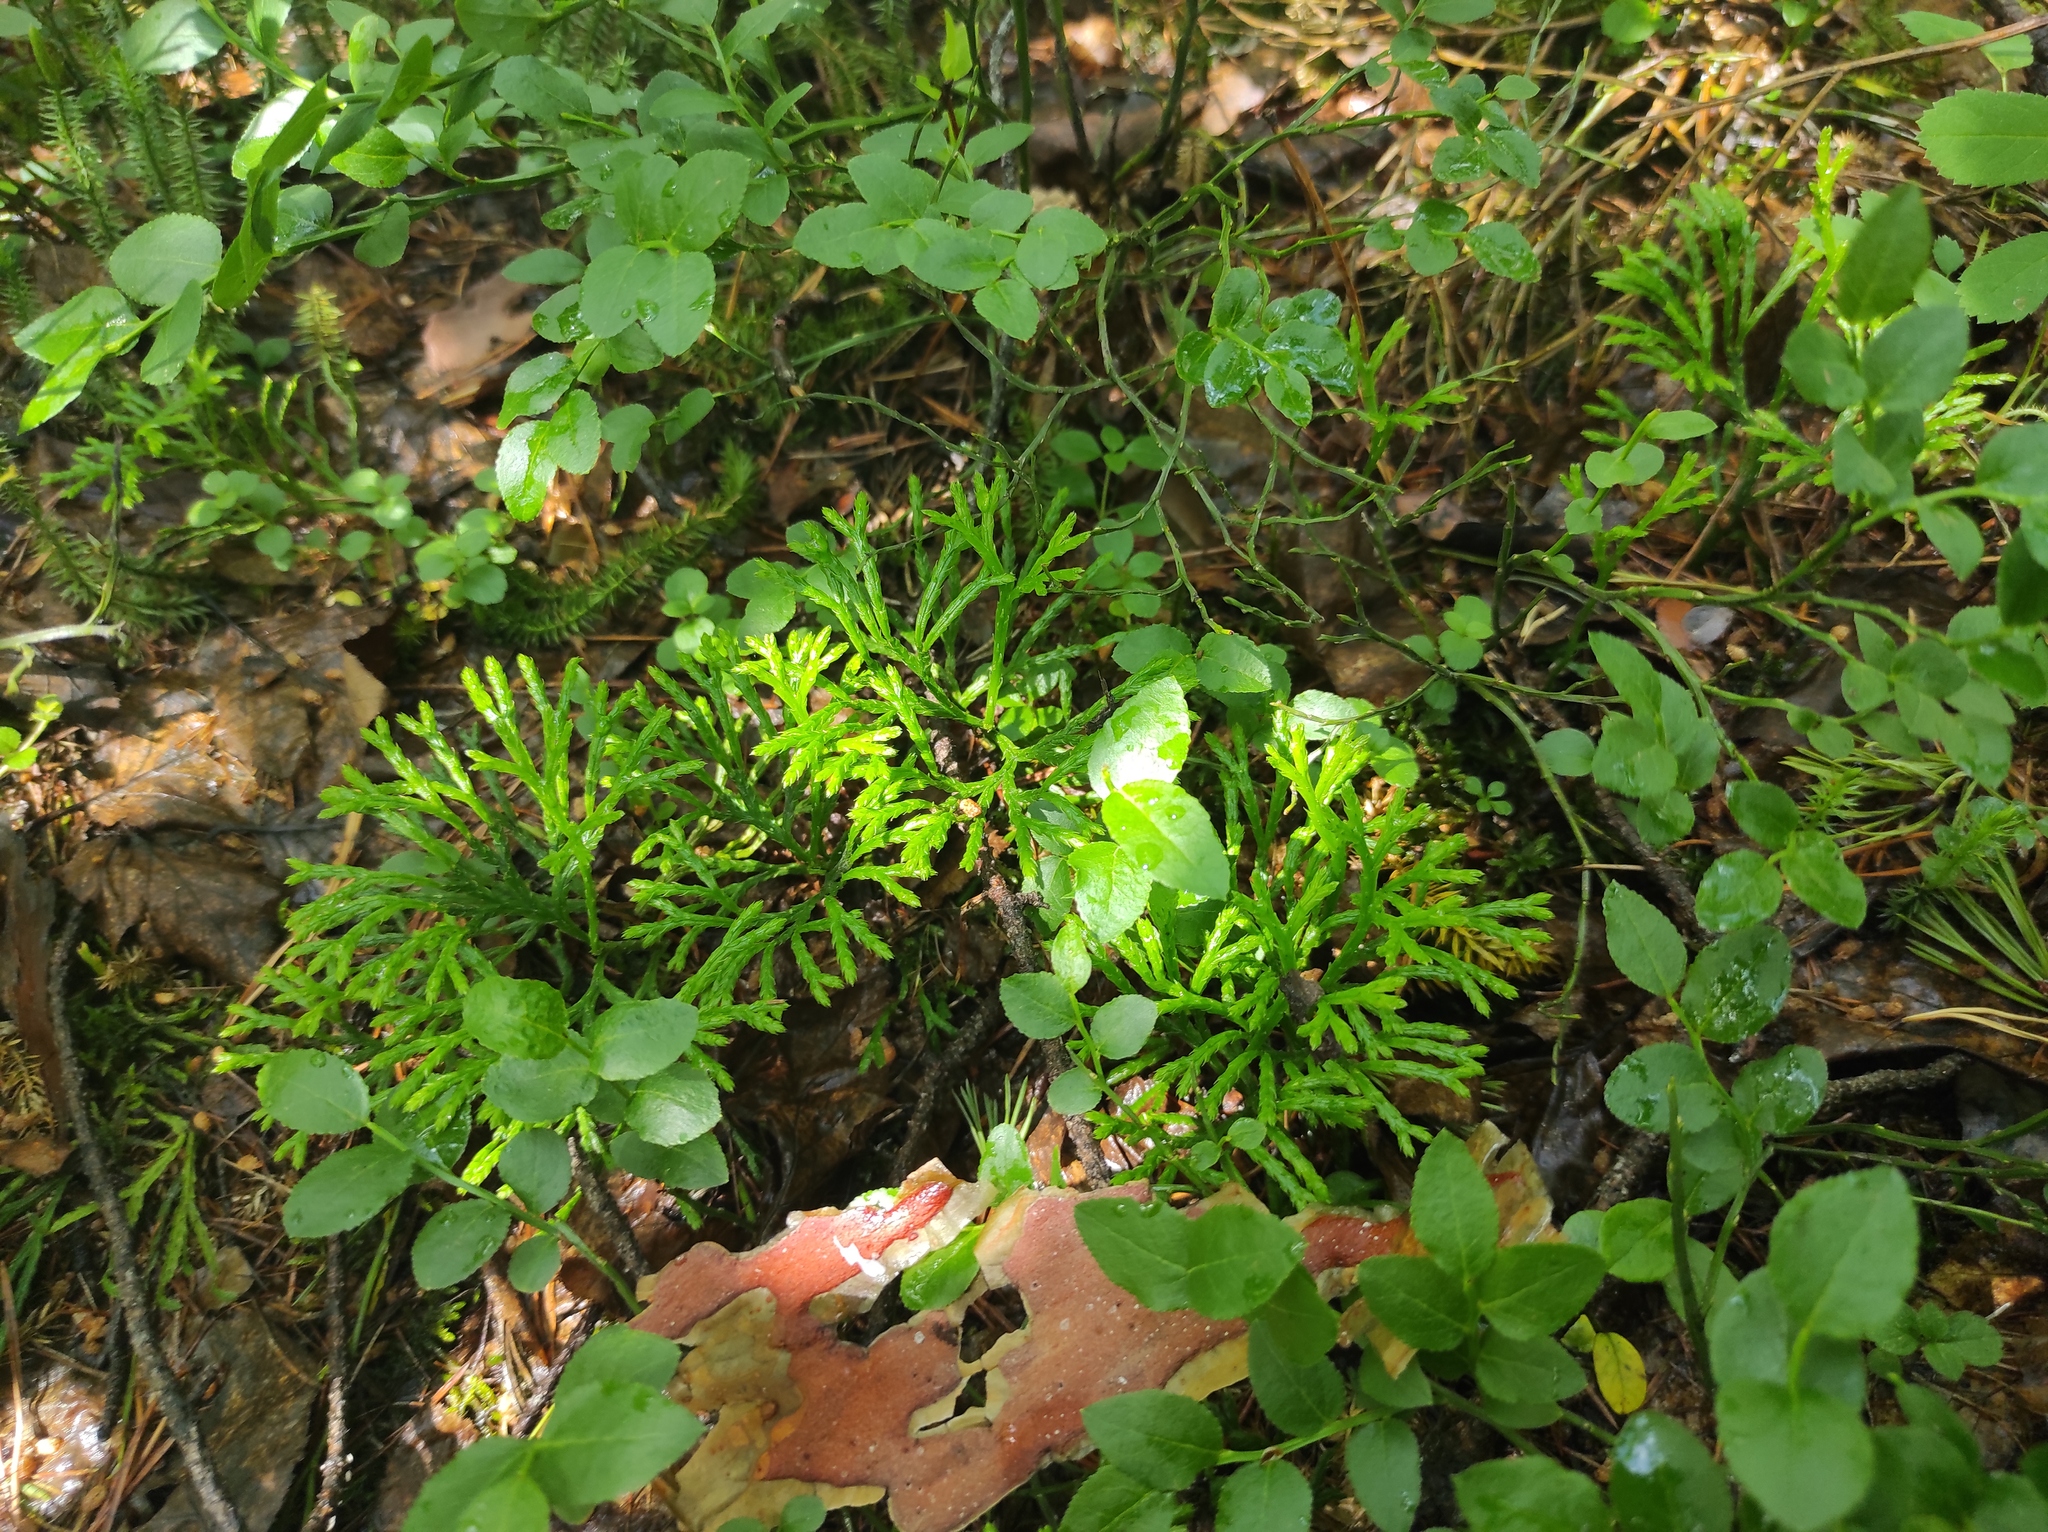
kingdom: Plantae
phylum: Tracheophyta
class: Lycopodiopsida
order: Lycopodiales
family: Lycopodiaceae
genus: Diphasiastrum
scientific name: Diphasiastrum complanatum
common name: Northern running-pine
